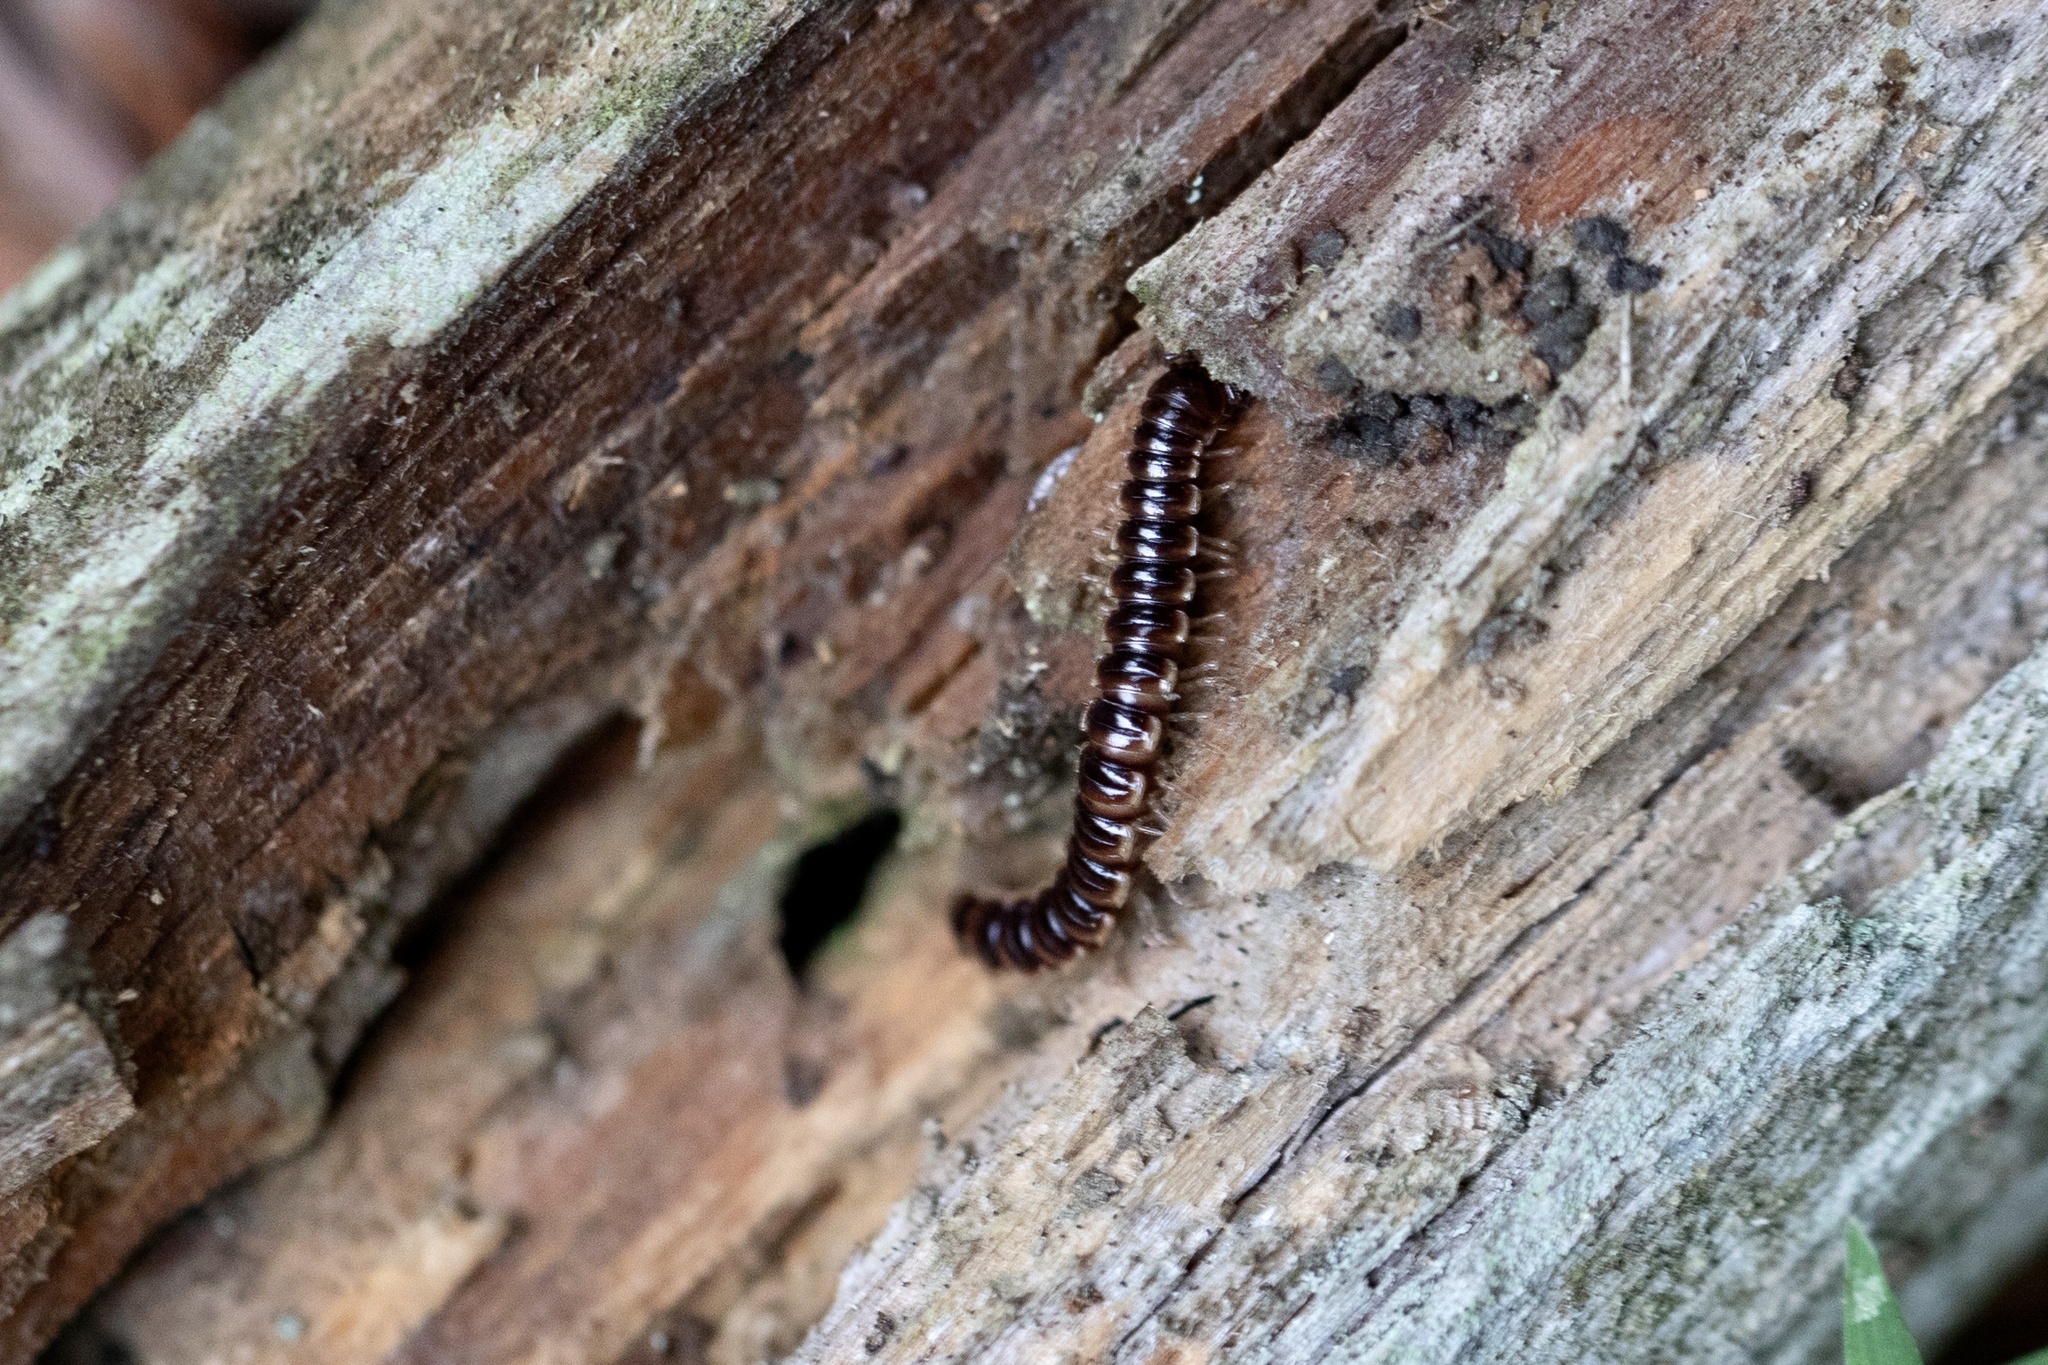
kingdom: Animalia
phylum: Arthropoda
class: Diplopoda
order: Polydesmida
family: Paradoxosomatidae
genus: Oxidus
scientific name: Oxidus gracilis
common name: Greenhouse millipede
